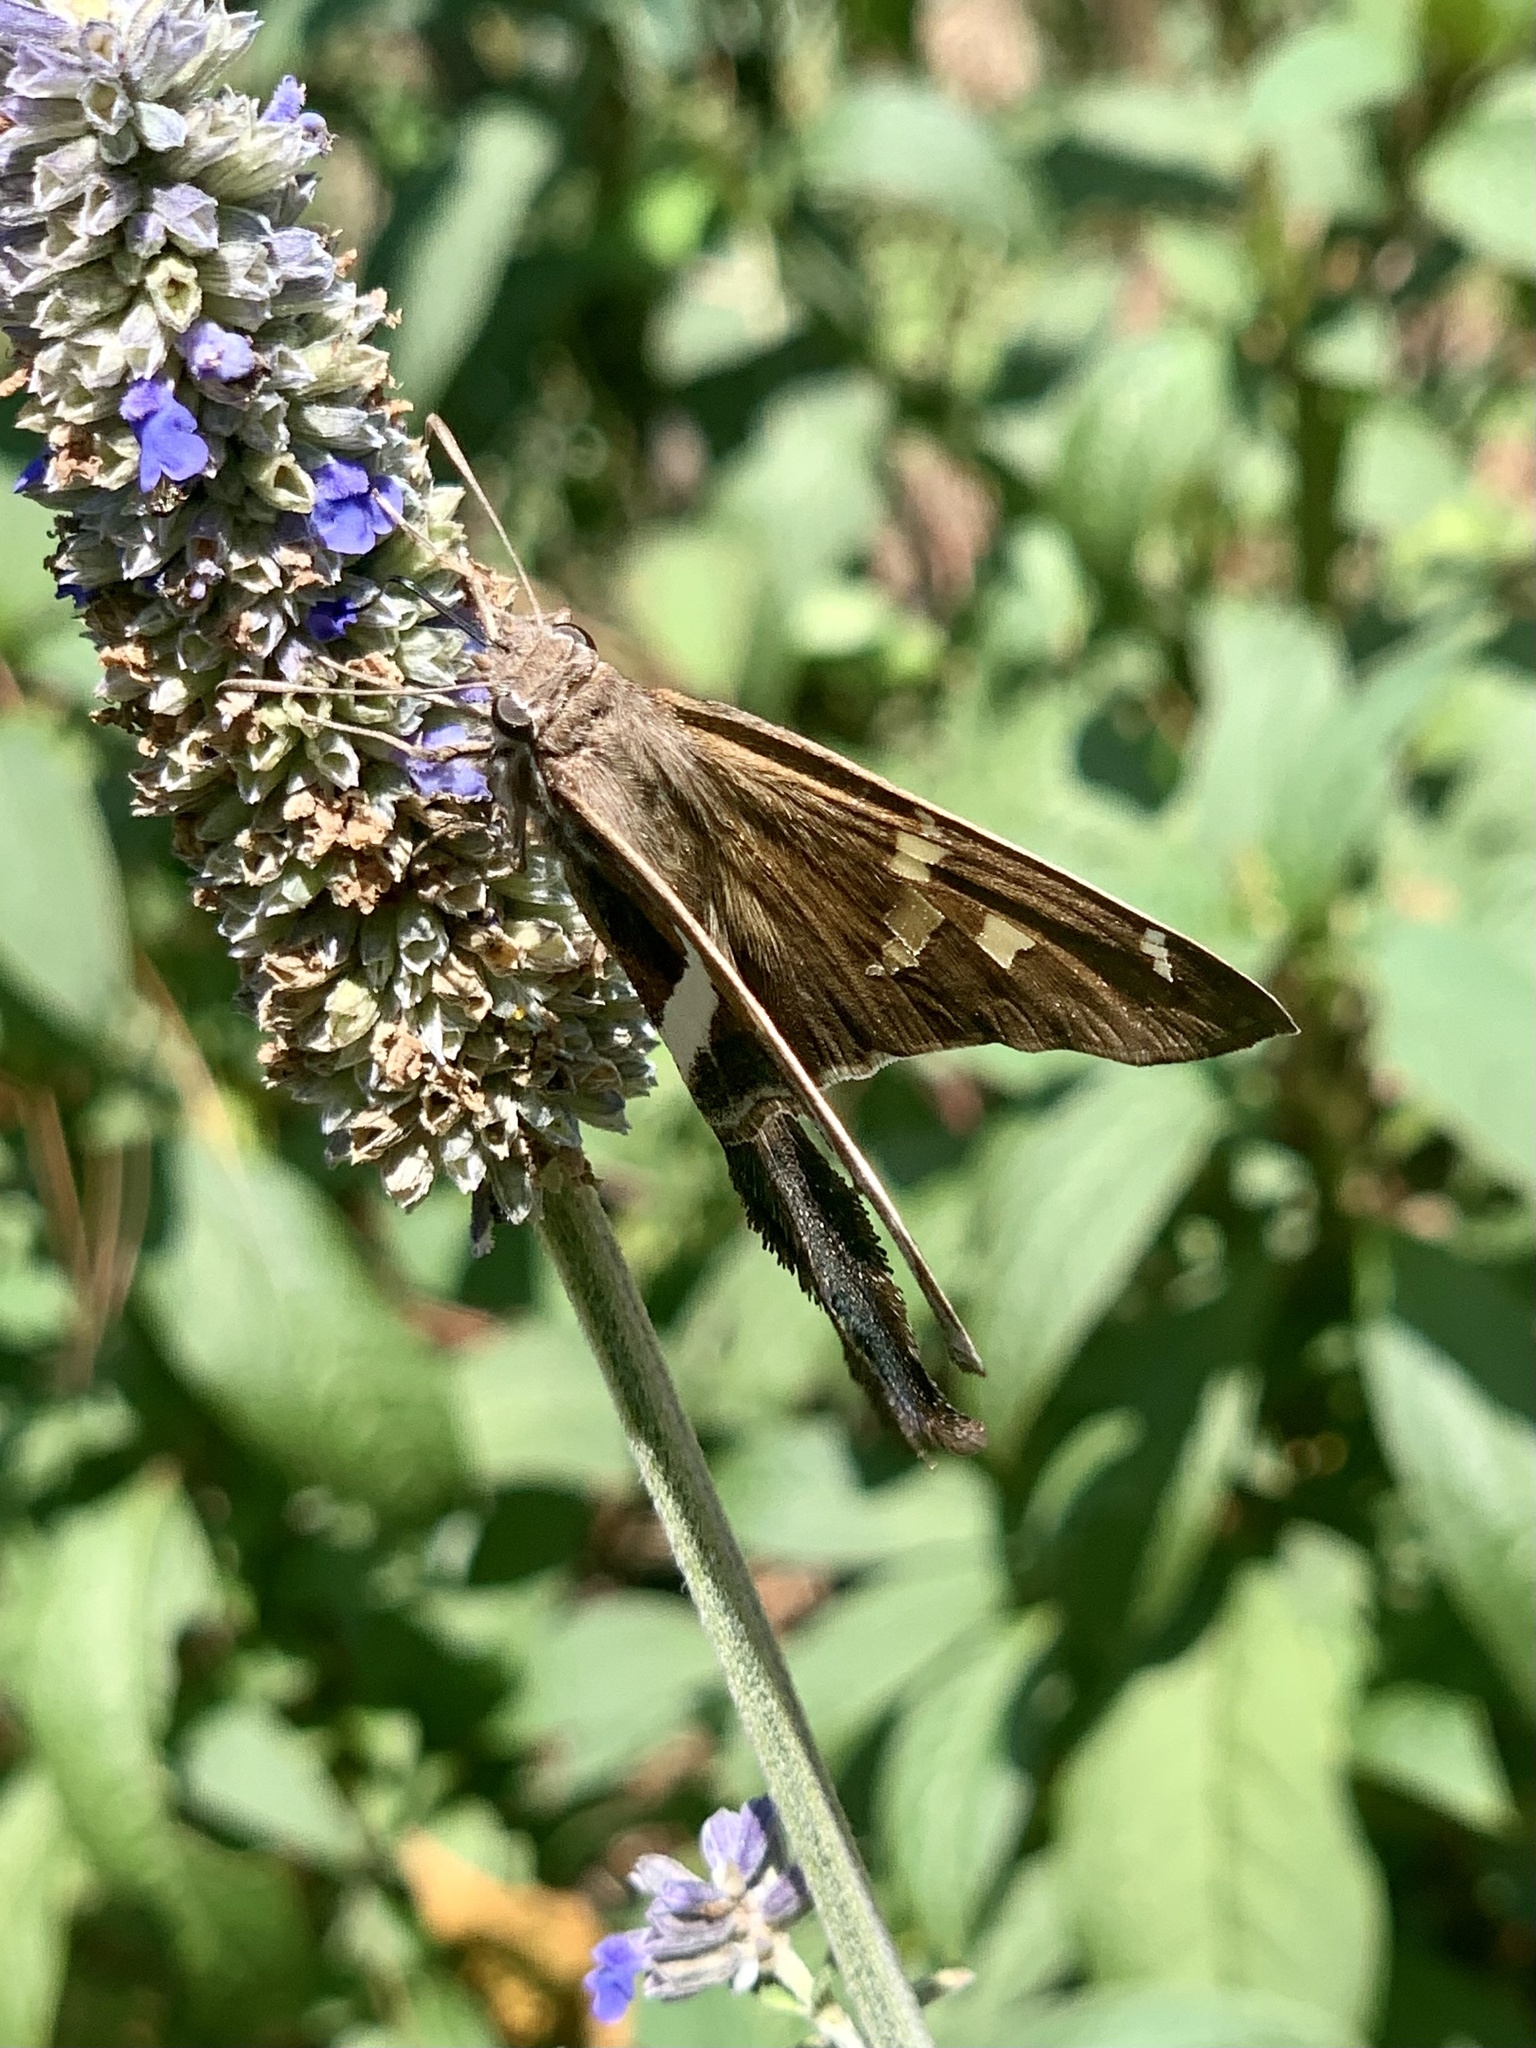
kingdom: Animalia
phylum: Arthropoda
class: Insecta
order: Lepidoptera
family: Hesperiidae
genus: Chioides
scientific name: Chioides catillus
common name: Silverbanded skipper
